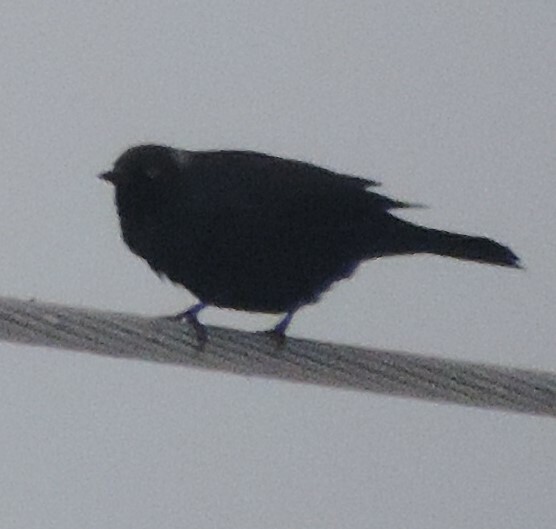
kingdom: Animalia
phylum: Chordata
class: Aves
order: Passeriformes
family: Icteridae
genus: Euphagus
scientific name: Euphagus cyanocephalus
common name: Brewer's blackbird
